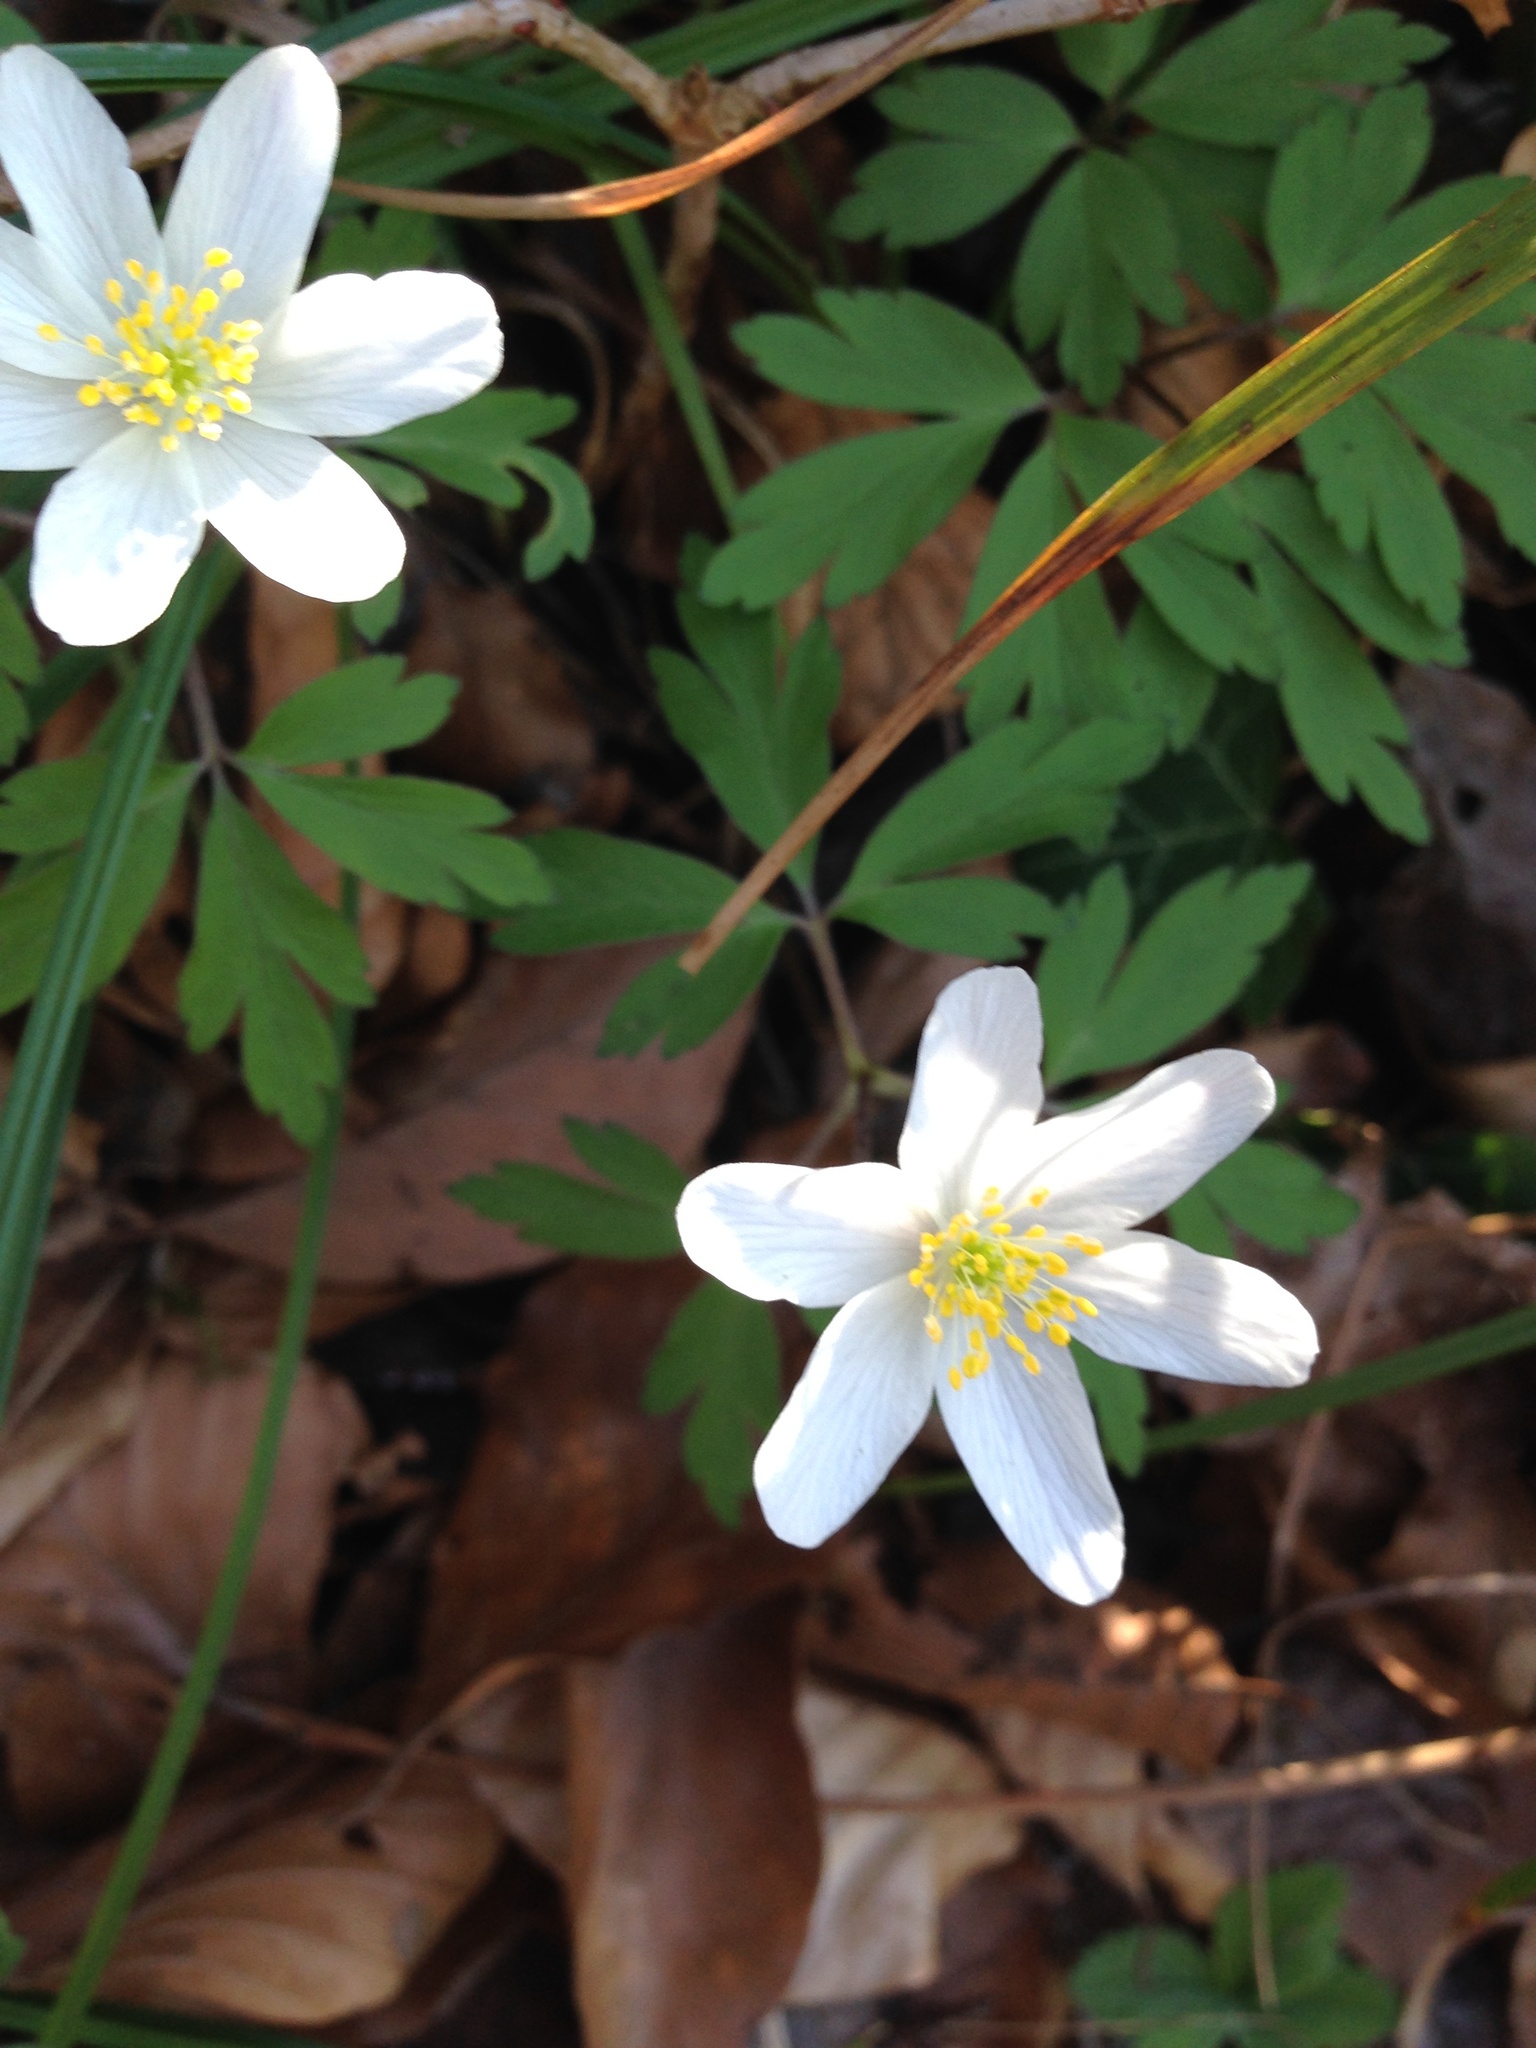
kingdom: Plantae
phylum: Tracheophyta
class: Magnoliopsida
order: Ranunculales
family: Ranunculaceae
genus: Anemone
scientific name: Anemone nemorosa
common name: Wood anemone
